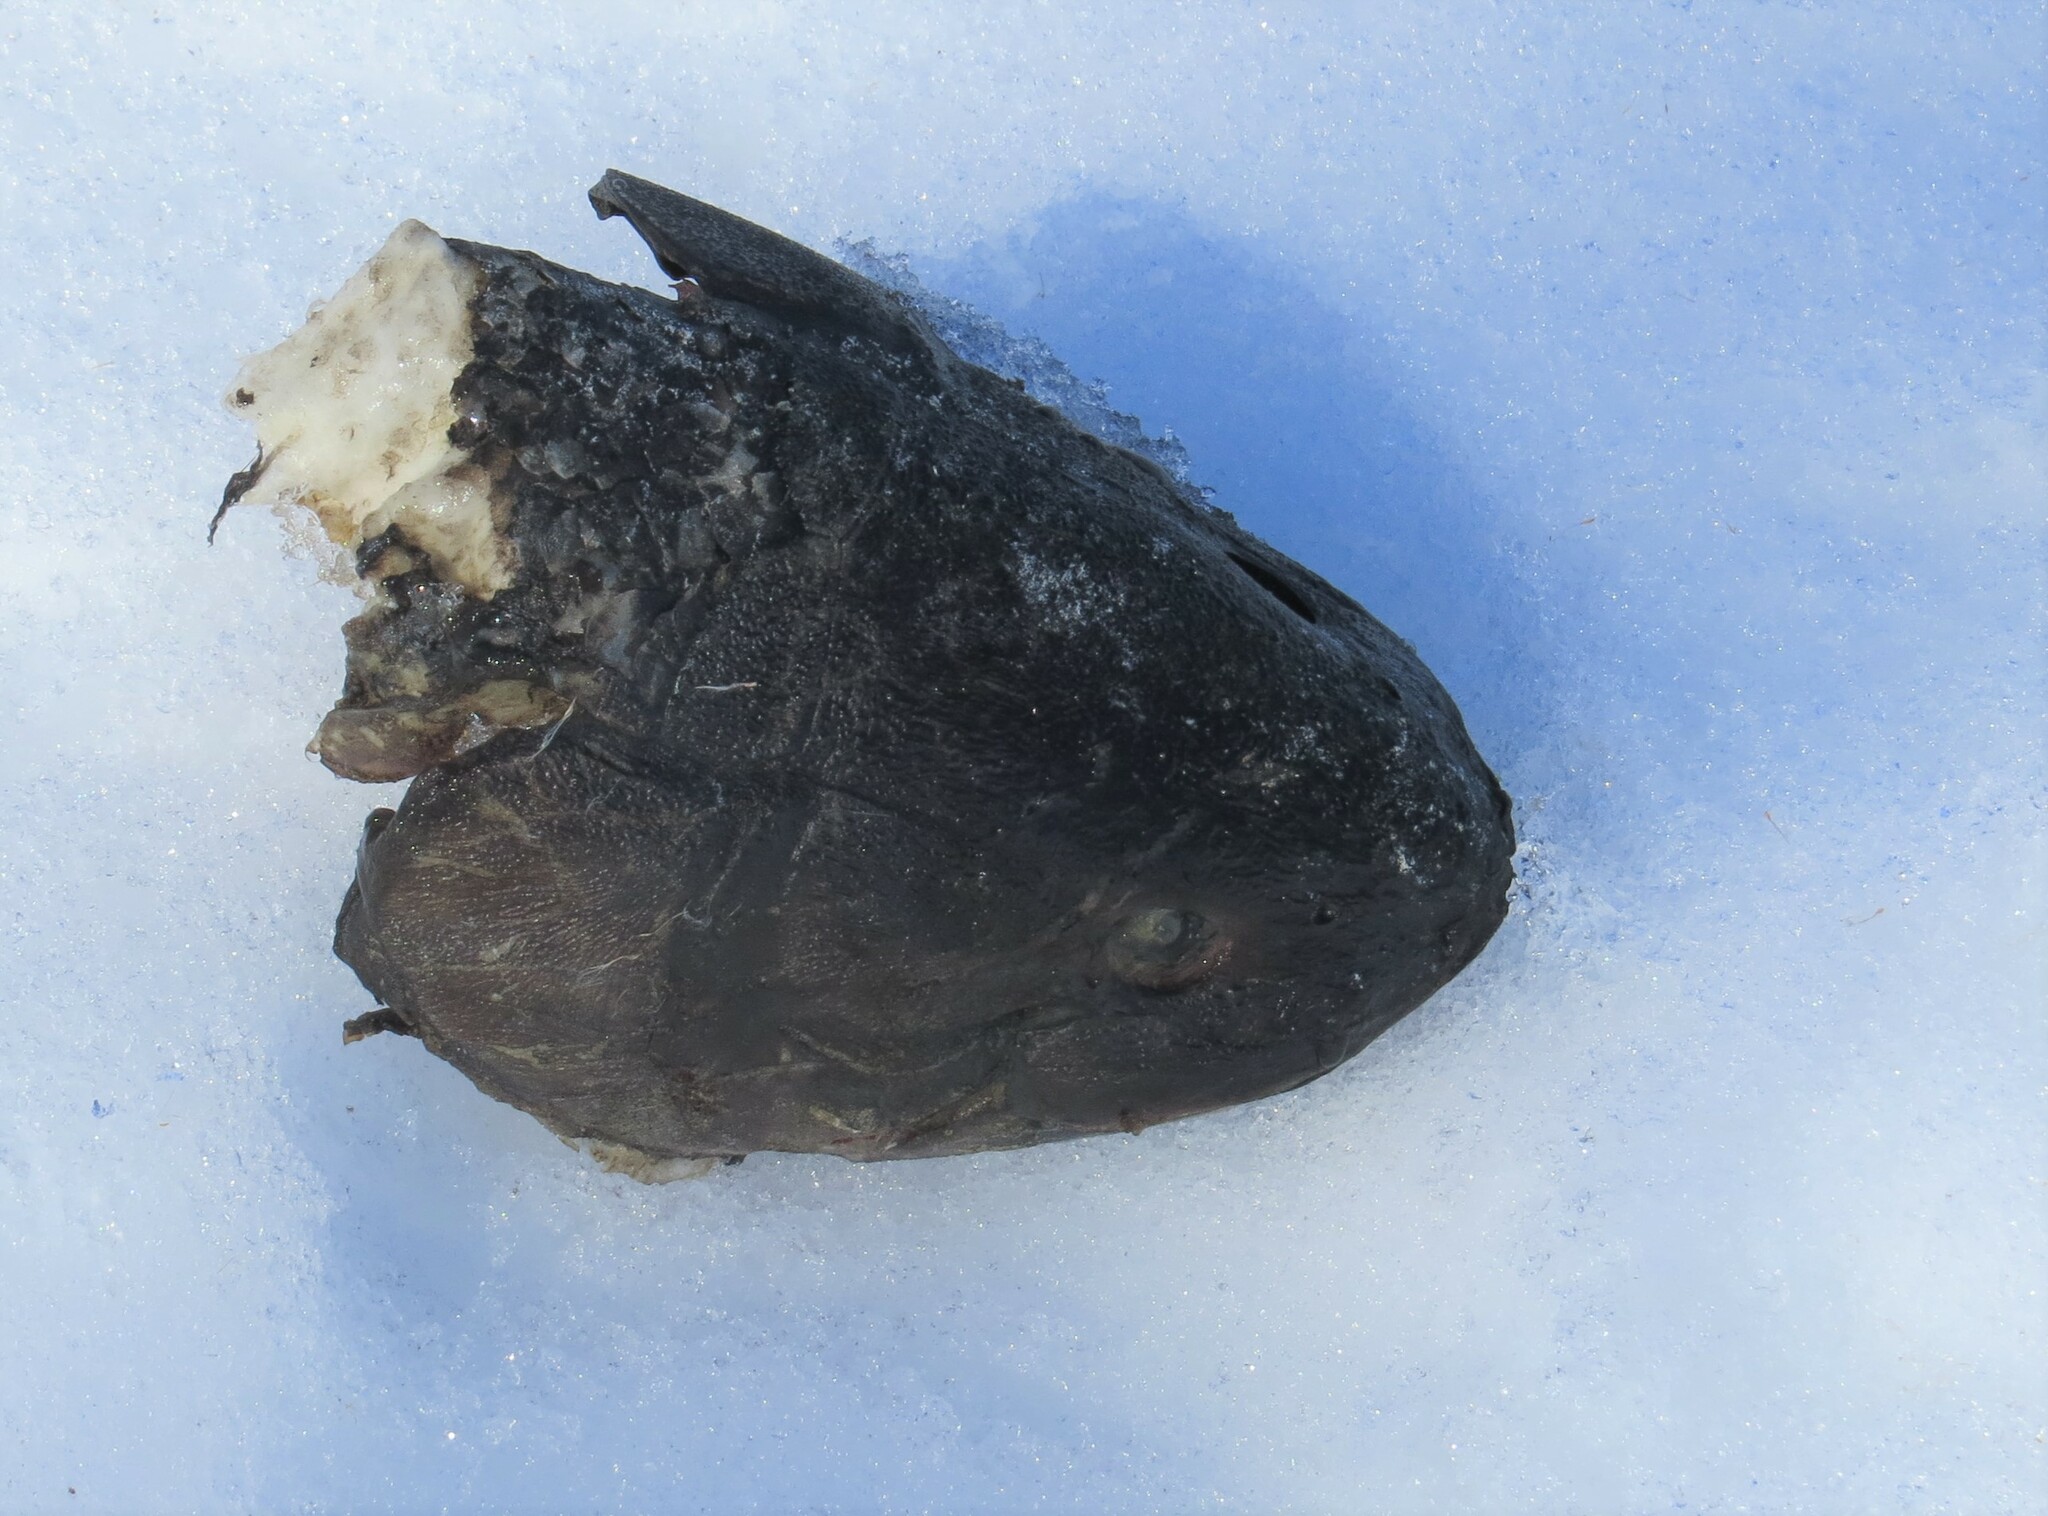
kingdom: Animalia
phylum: Chordata
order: Amiiformes
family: Amiidae
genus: Amia
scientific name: Amia calva
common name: Bowfin
